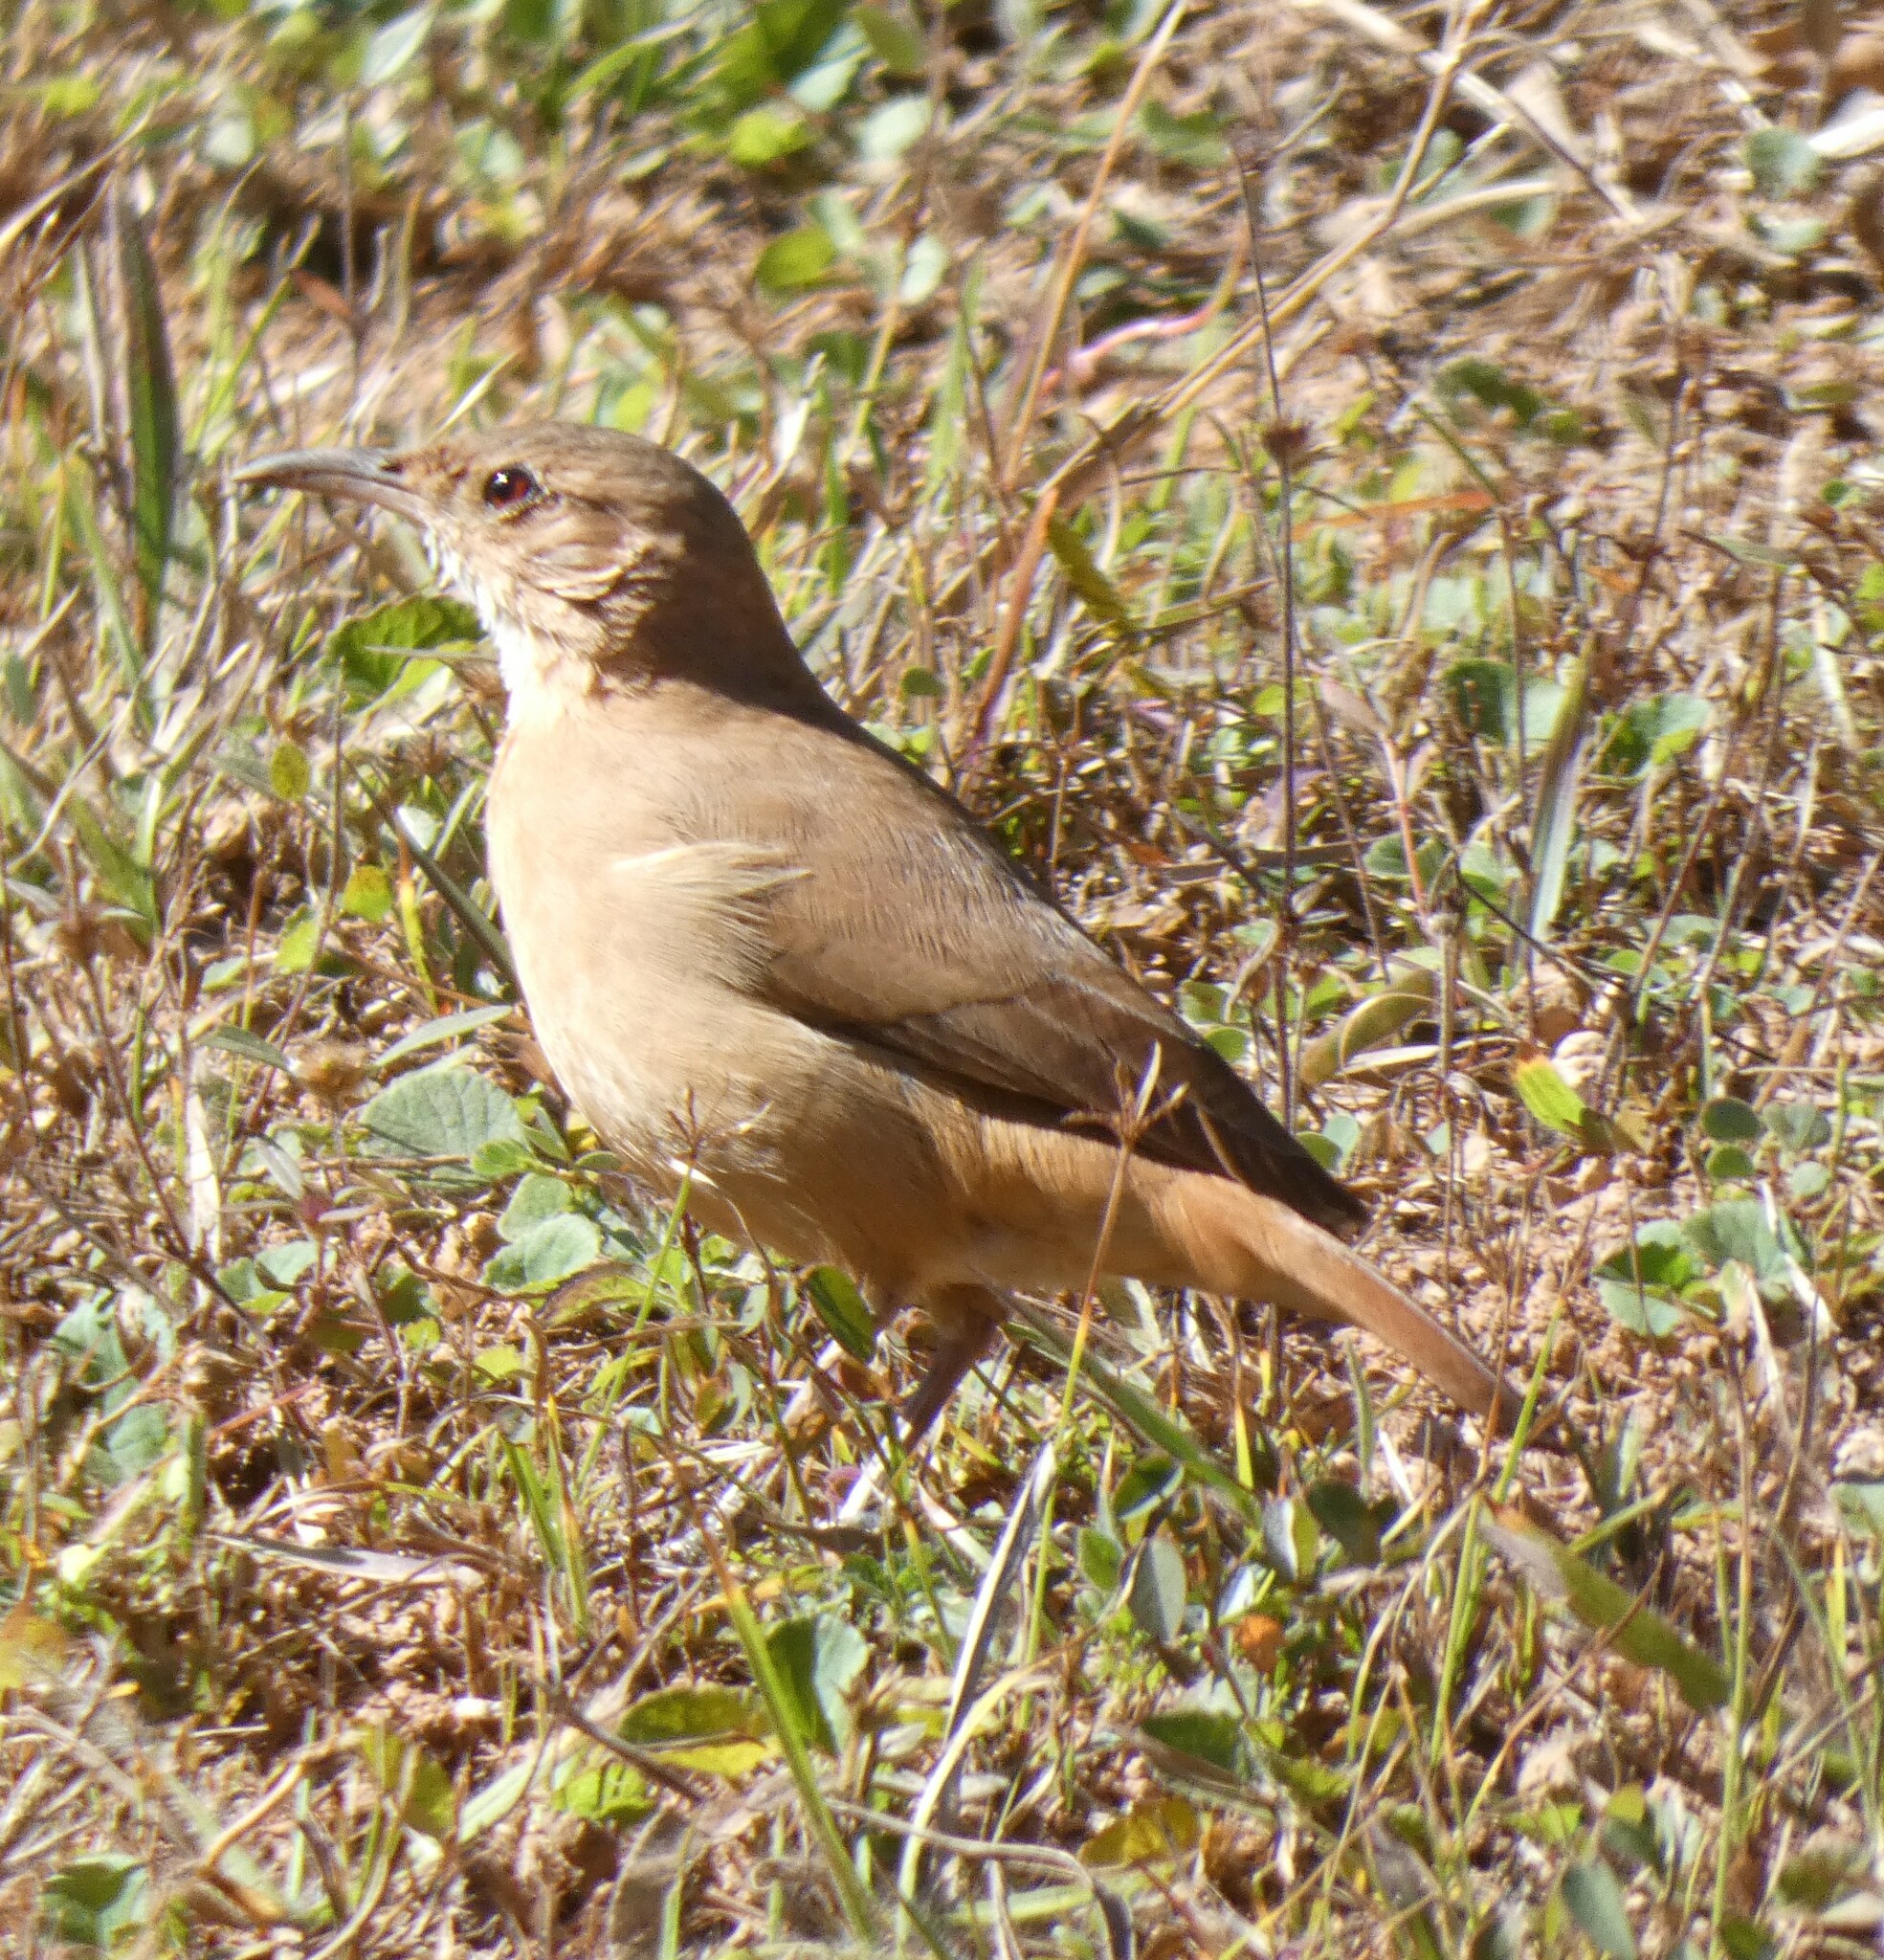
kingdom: Animalia
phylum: Chordata
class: Aves
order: Passeriformes
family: Furnariidae
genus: Furnarius
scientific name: Furnarius rufus
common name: Rufous hornero
